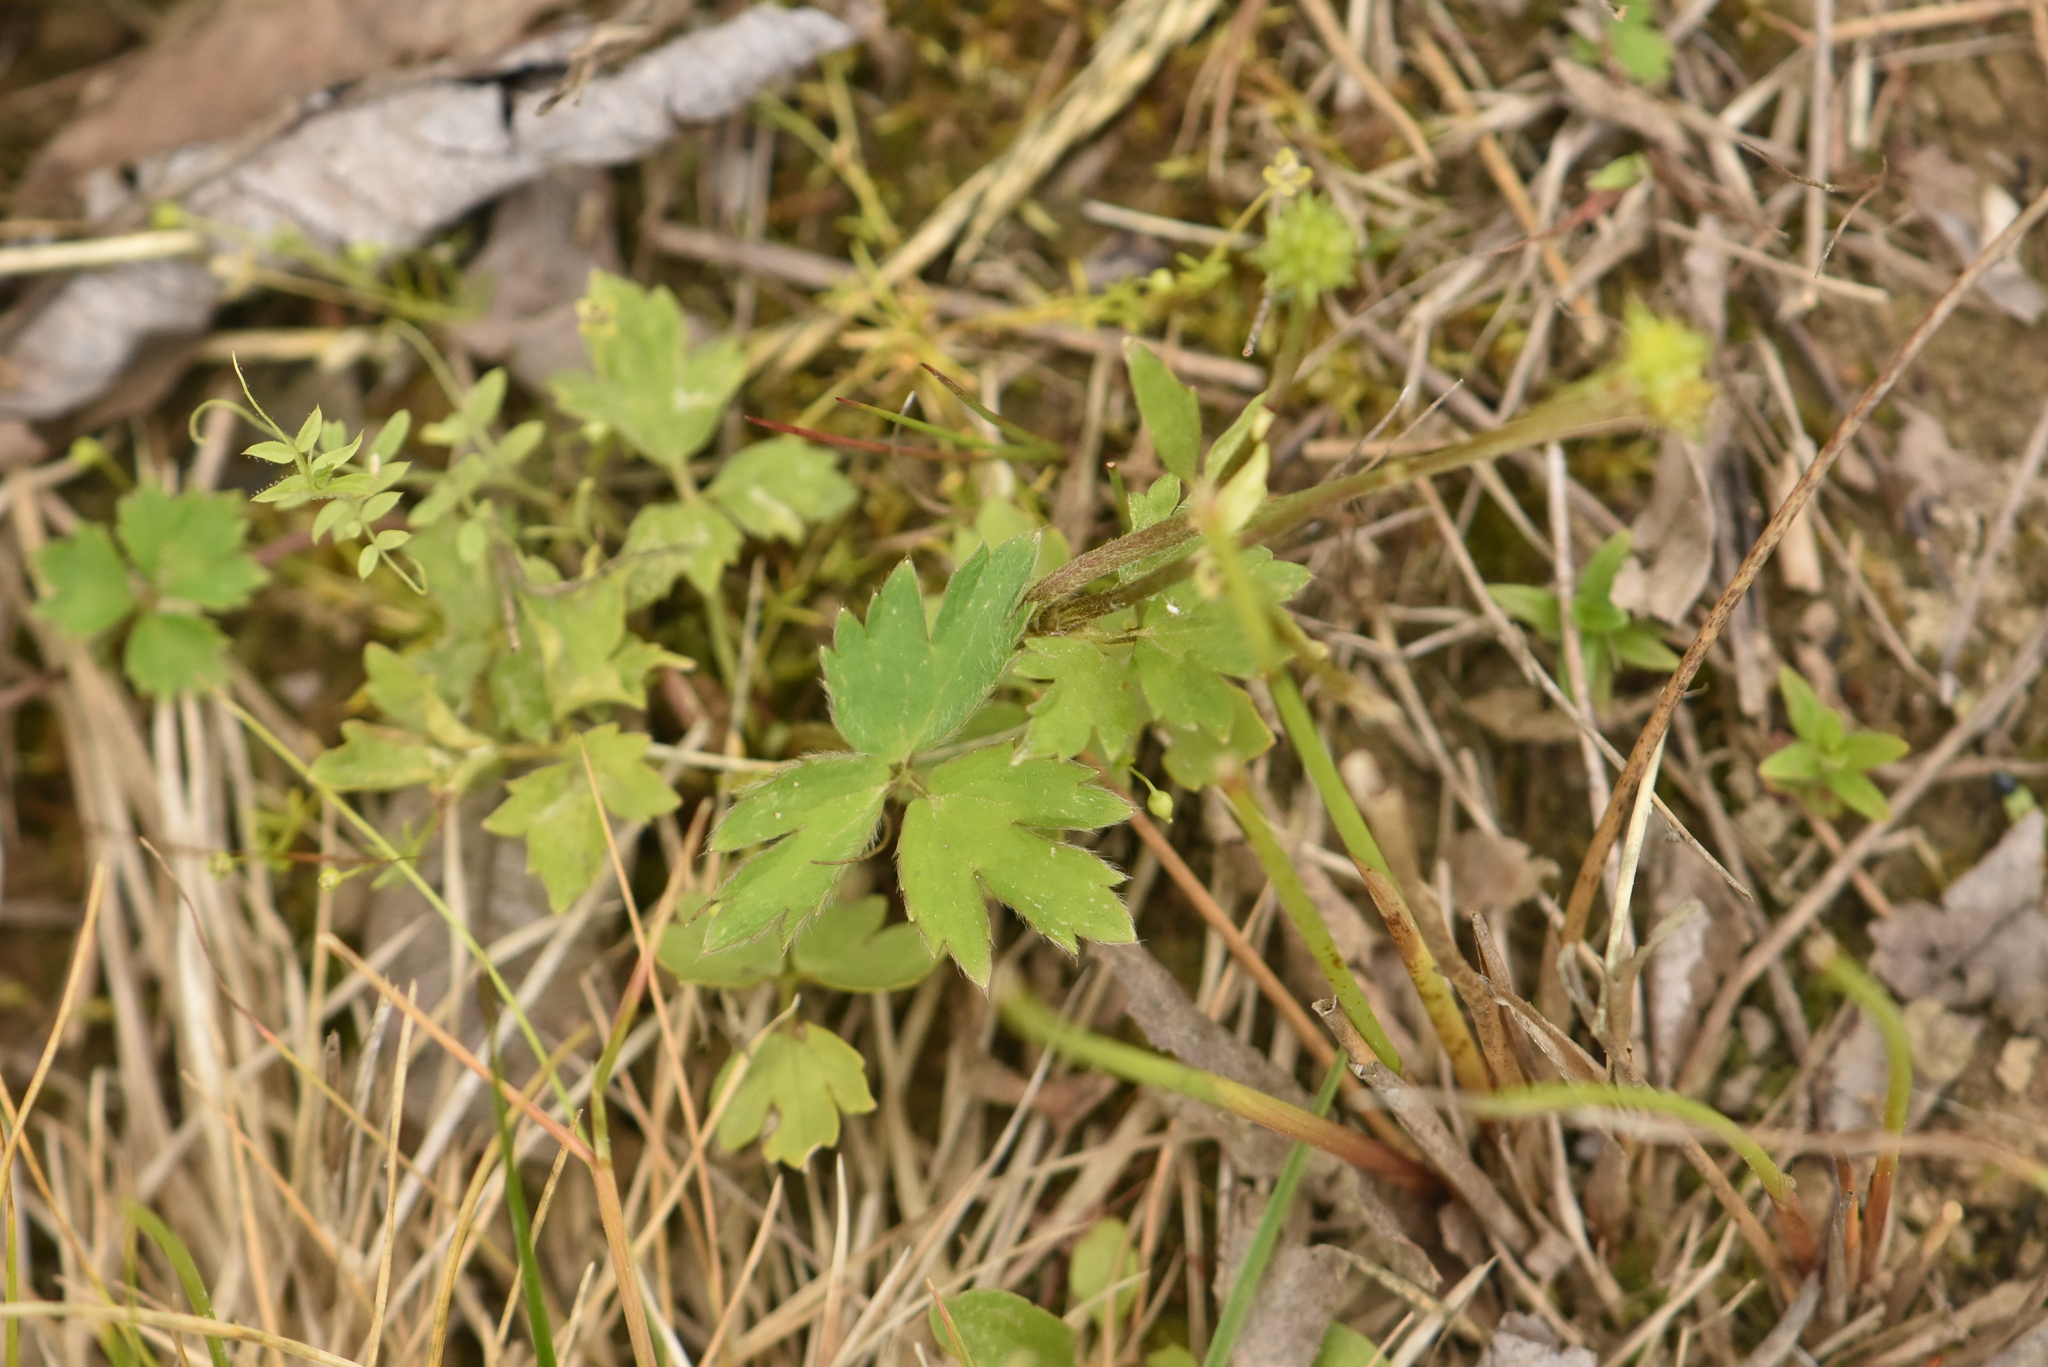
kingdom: Plantae
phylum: Tracheophyta
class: Magnoliopsida
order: Ranunculales
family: Ranunculaceae
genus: Ranunculus
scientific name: Ranunculus repens
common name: Creeping buttercup
